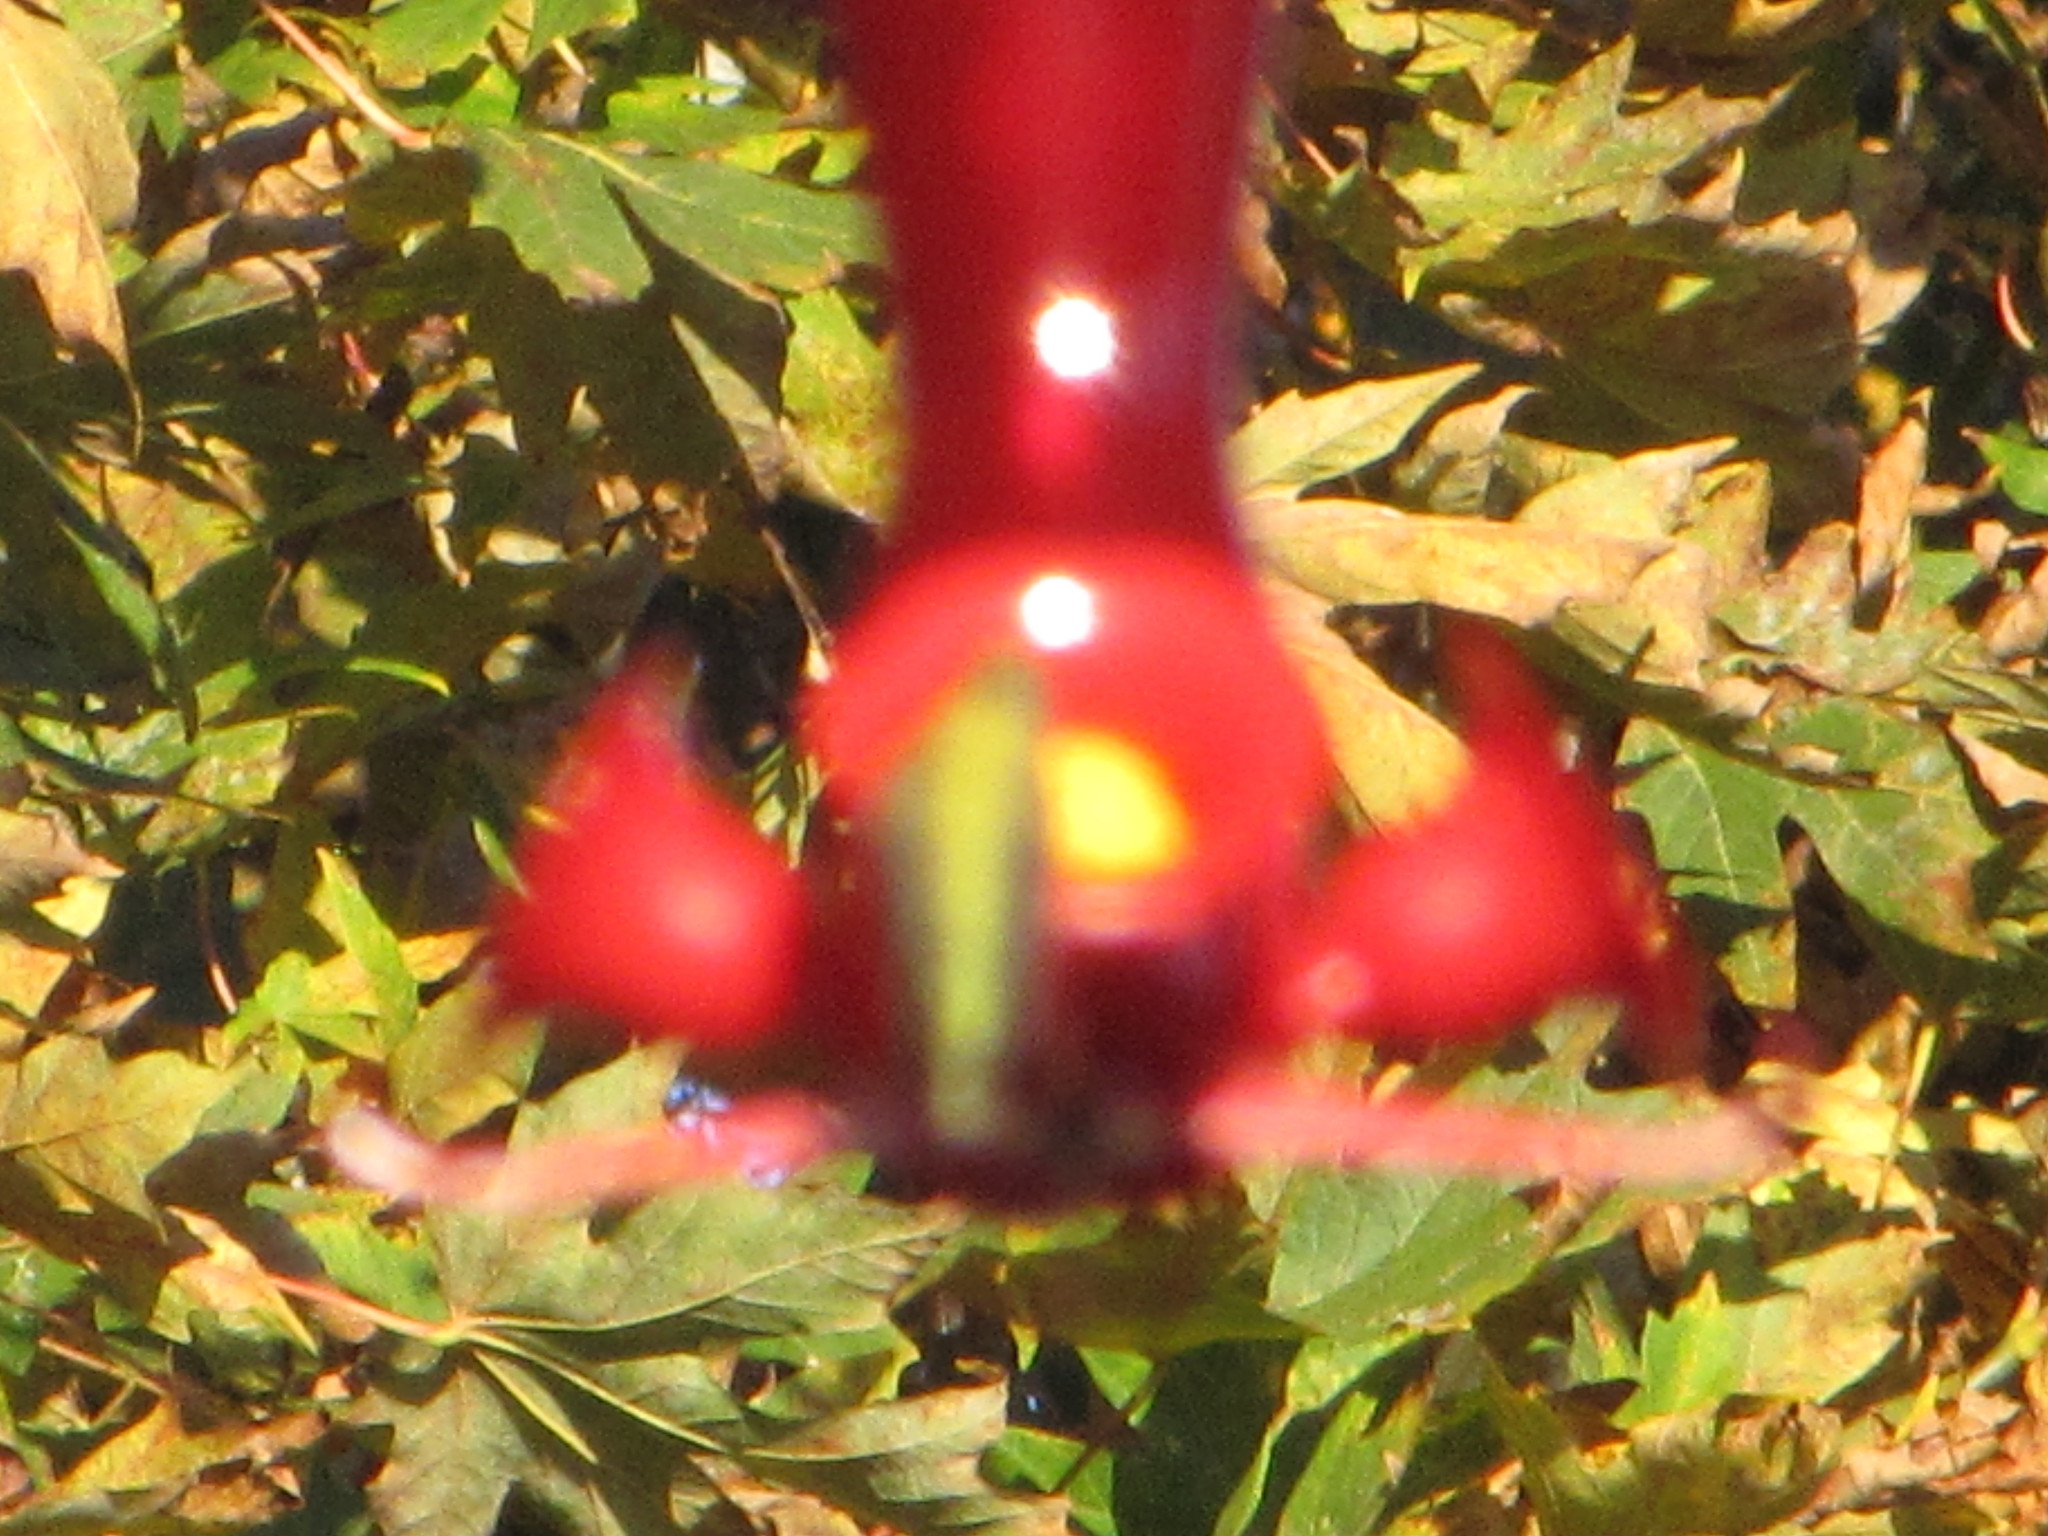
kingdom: Animalia
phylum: Chordata
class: Aves
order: Apodiformes
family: Trochilidae
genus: Calypte
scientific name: Calypte anna
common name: Anna's hummingbird
